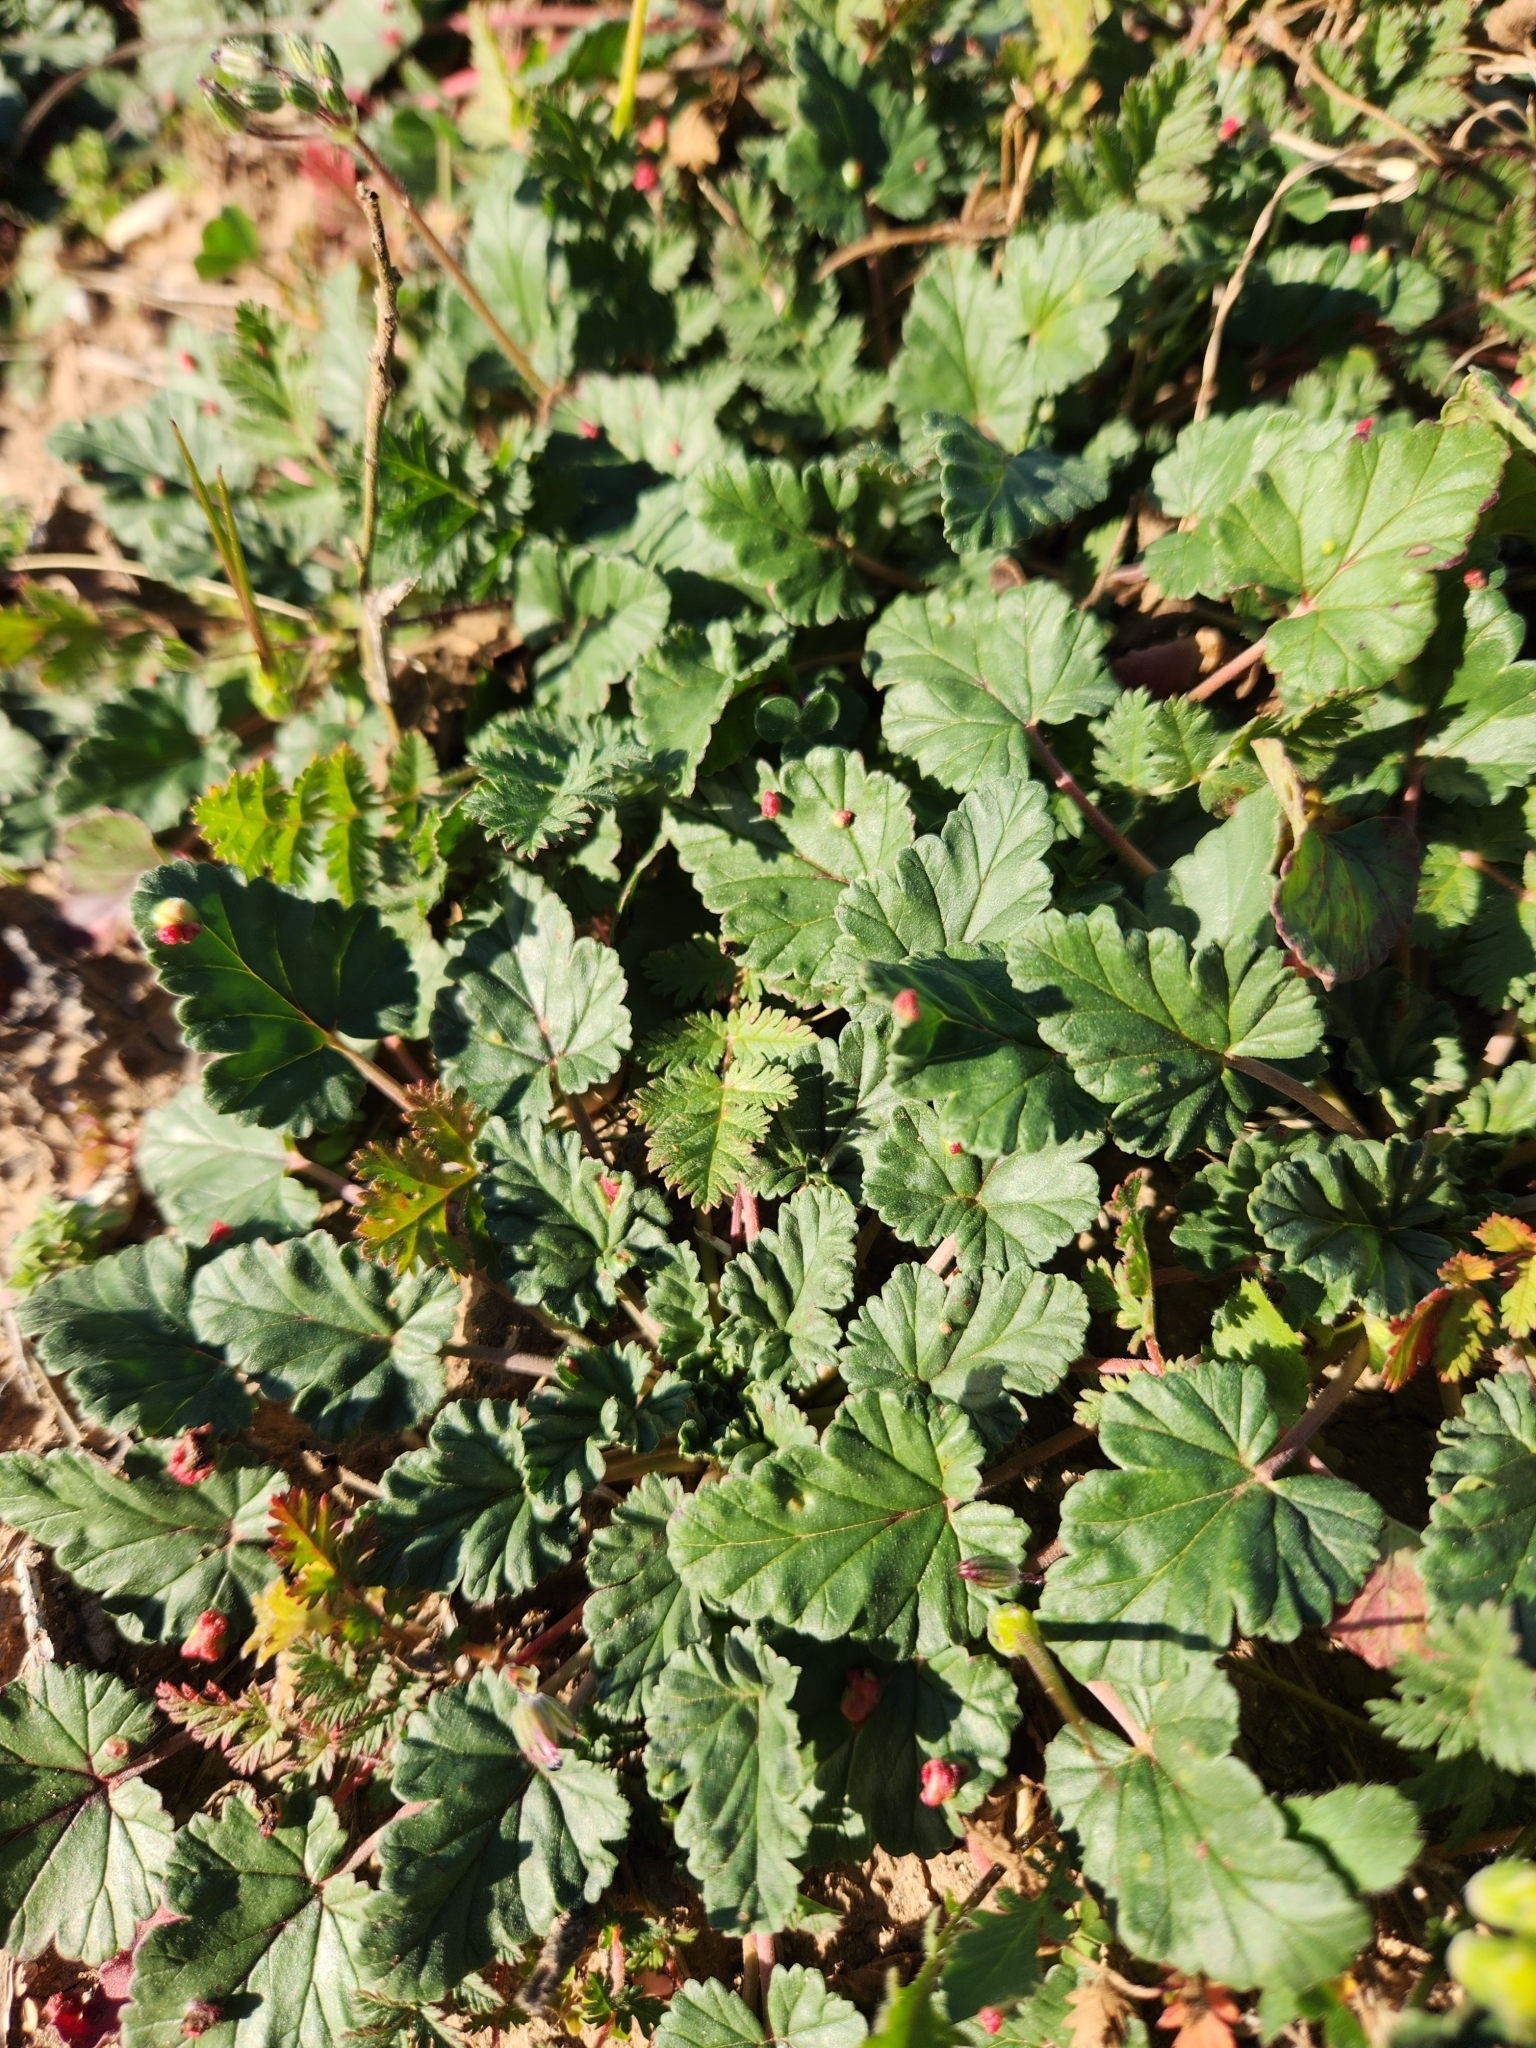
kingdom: Plantae
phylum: Tracheophyta
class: Magnoliopsida
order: Geraniales
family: Geraniaceae
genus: Erodium
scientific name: Erodium texanum
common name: Texas stork's-bill
